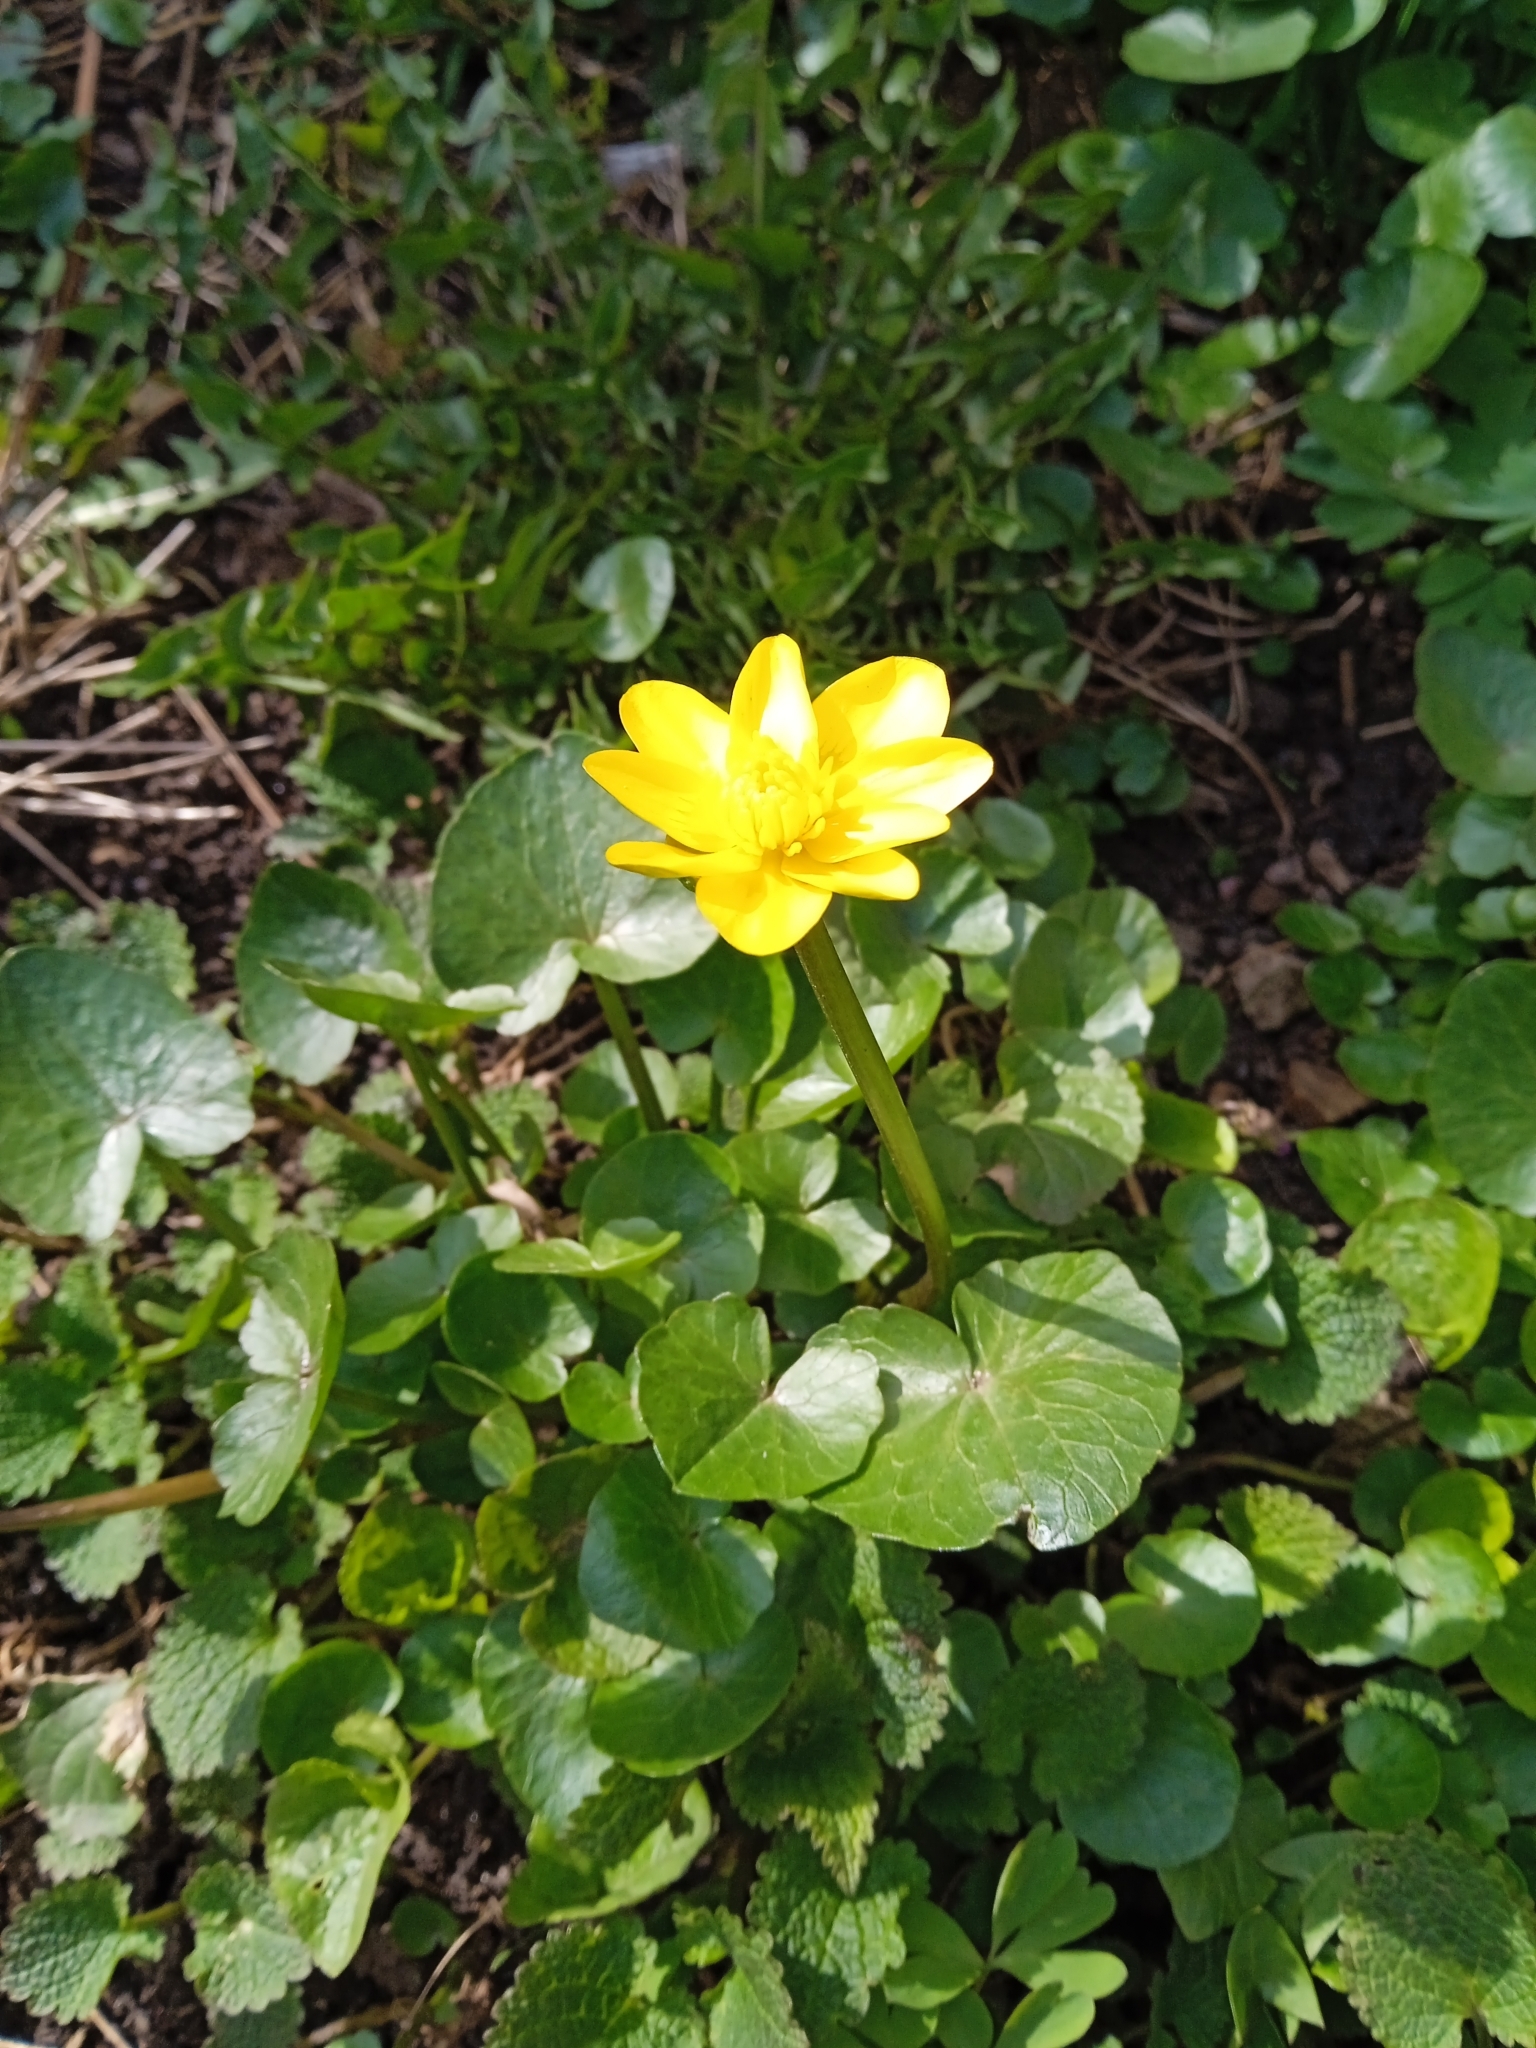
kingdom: Plantae
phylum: Tracheophyta
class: Magnoliopsida
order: Ranunculales
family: Ranunculaceae
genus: Ficaria
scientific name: Ficaria verna
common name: Lesser celandine
